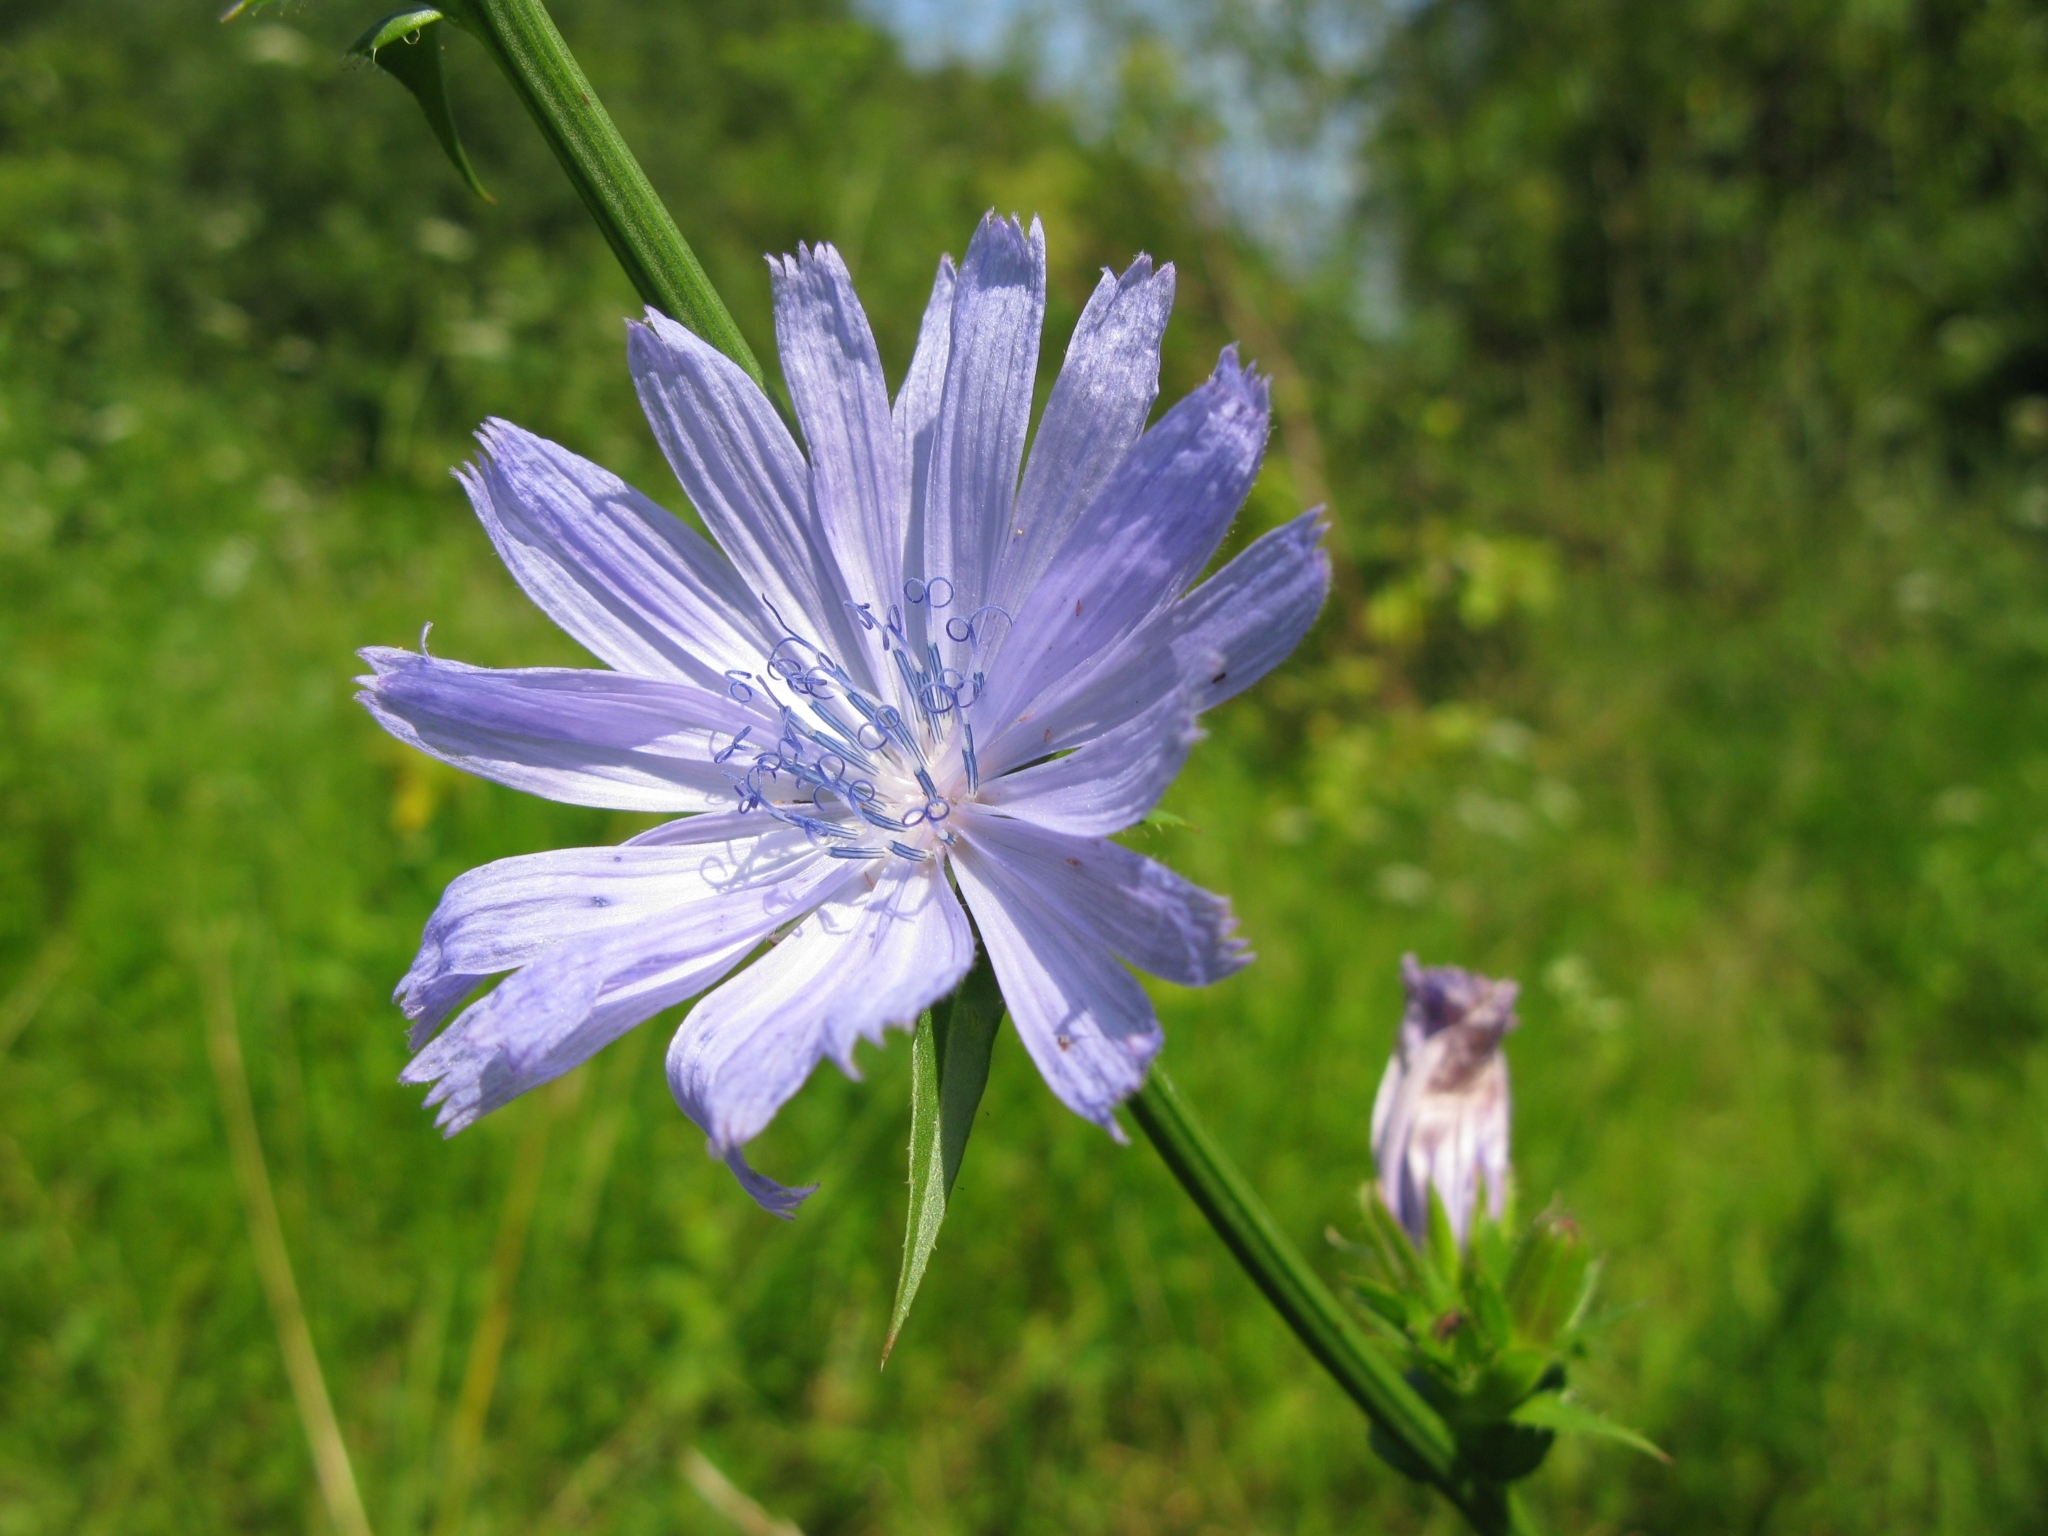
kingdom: Plantae
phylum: Tracheophyta
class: Magnoliopsida
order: Asterales
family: Asteraceae
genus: Cichorium
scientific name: Cichorium intybus
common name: Chicory
